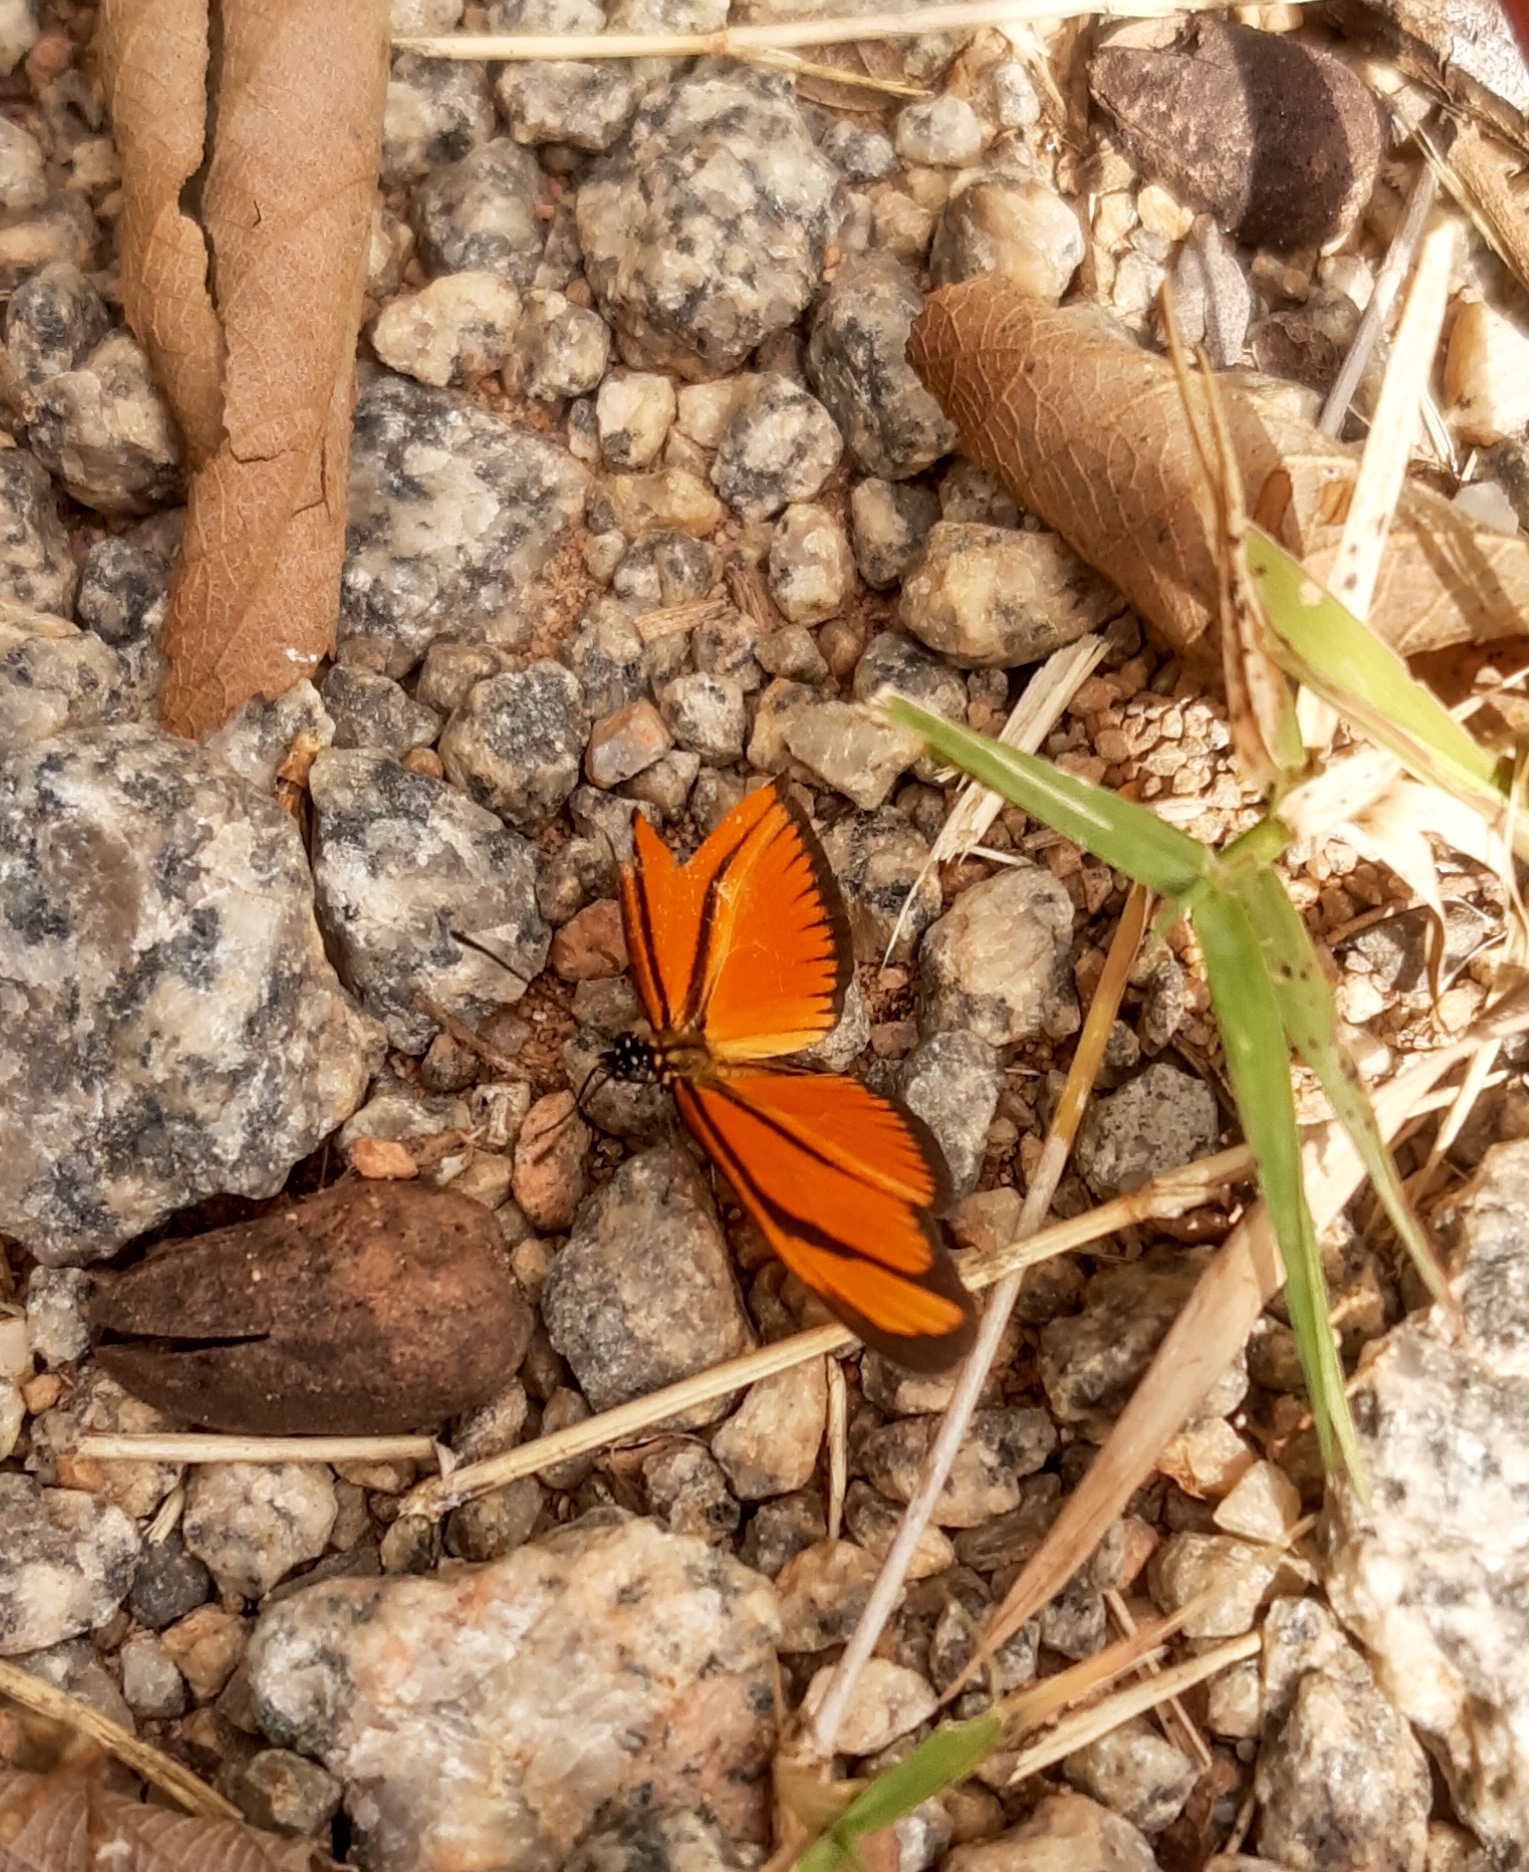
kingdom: Animalia
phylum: Arthropoda
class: Insecta
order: Lepidoptera
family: Nymphalidae
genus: Heliconius
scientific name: Heliconius aliphera
